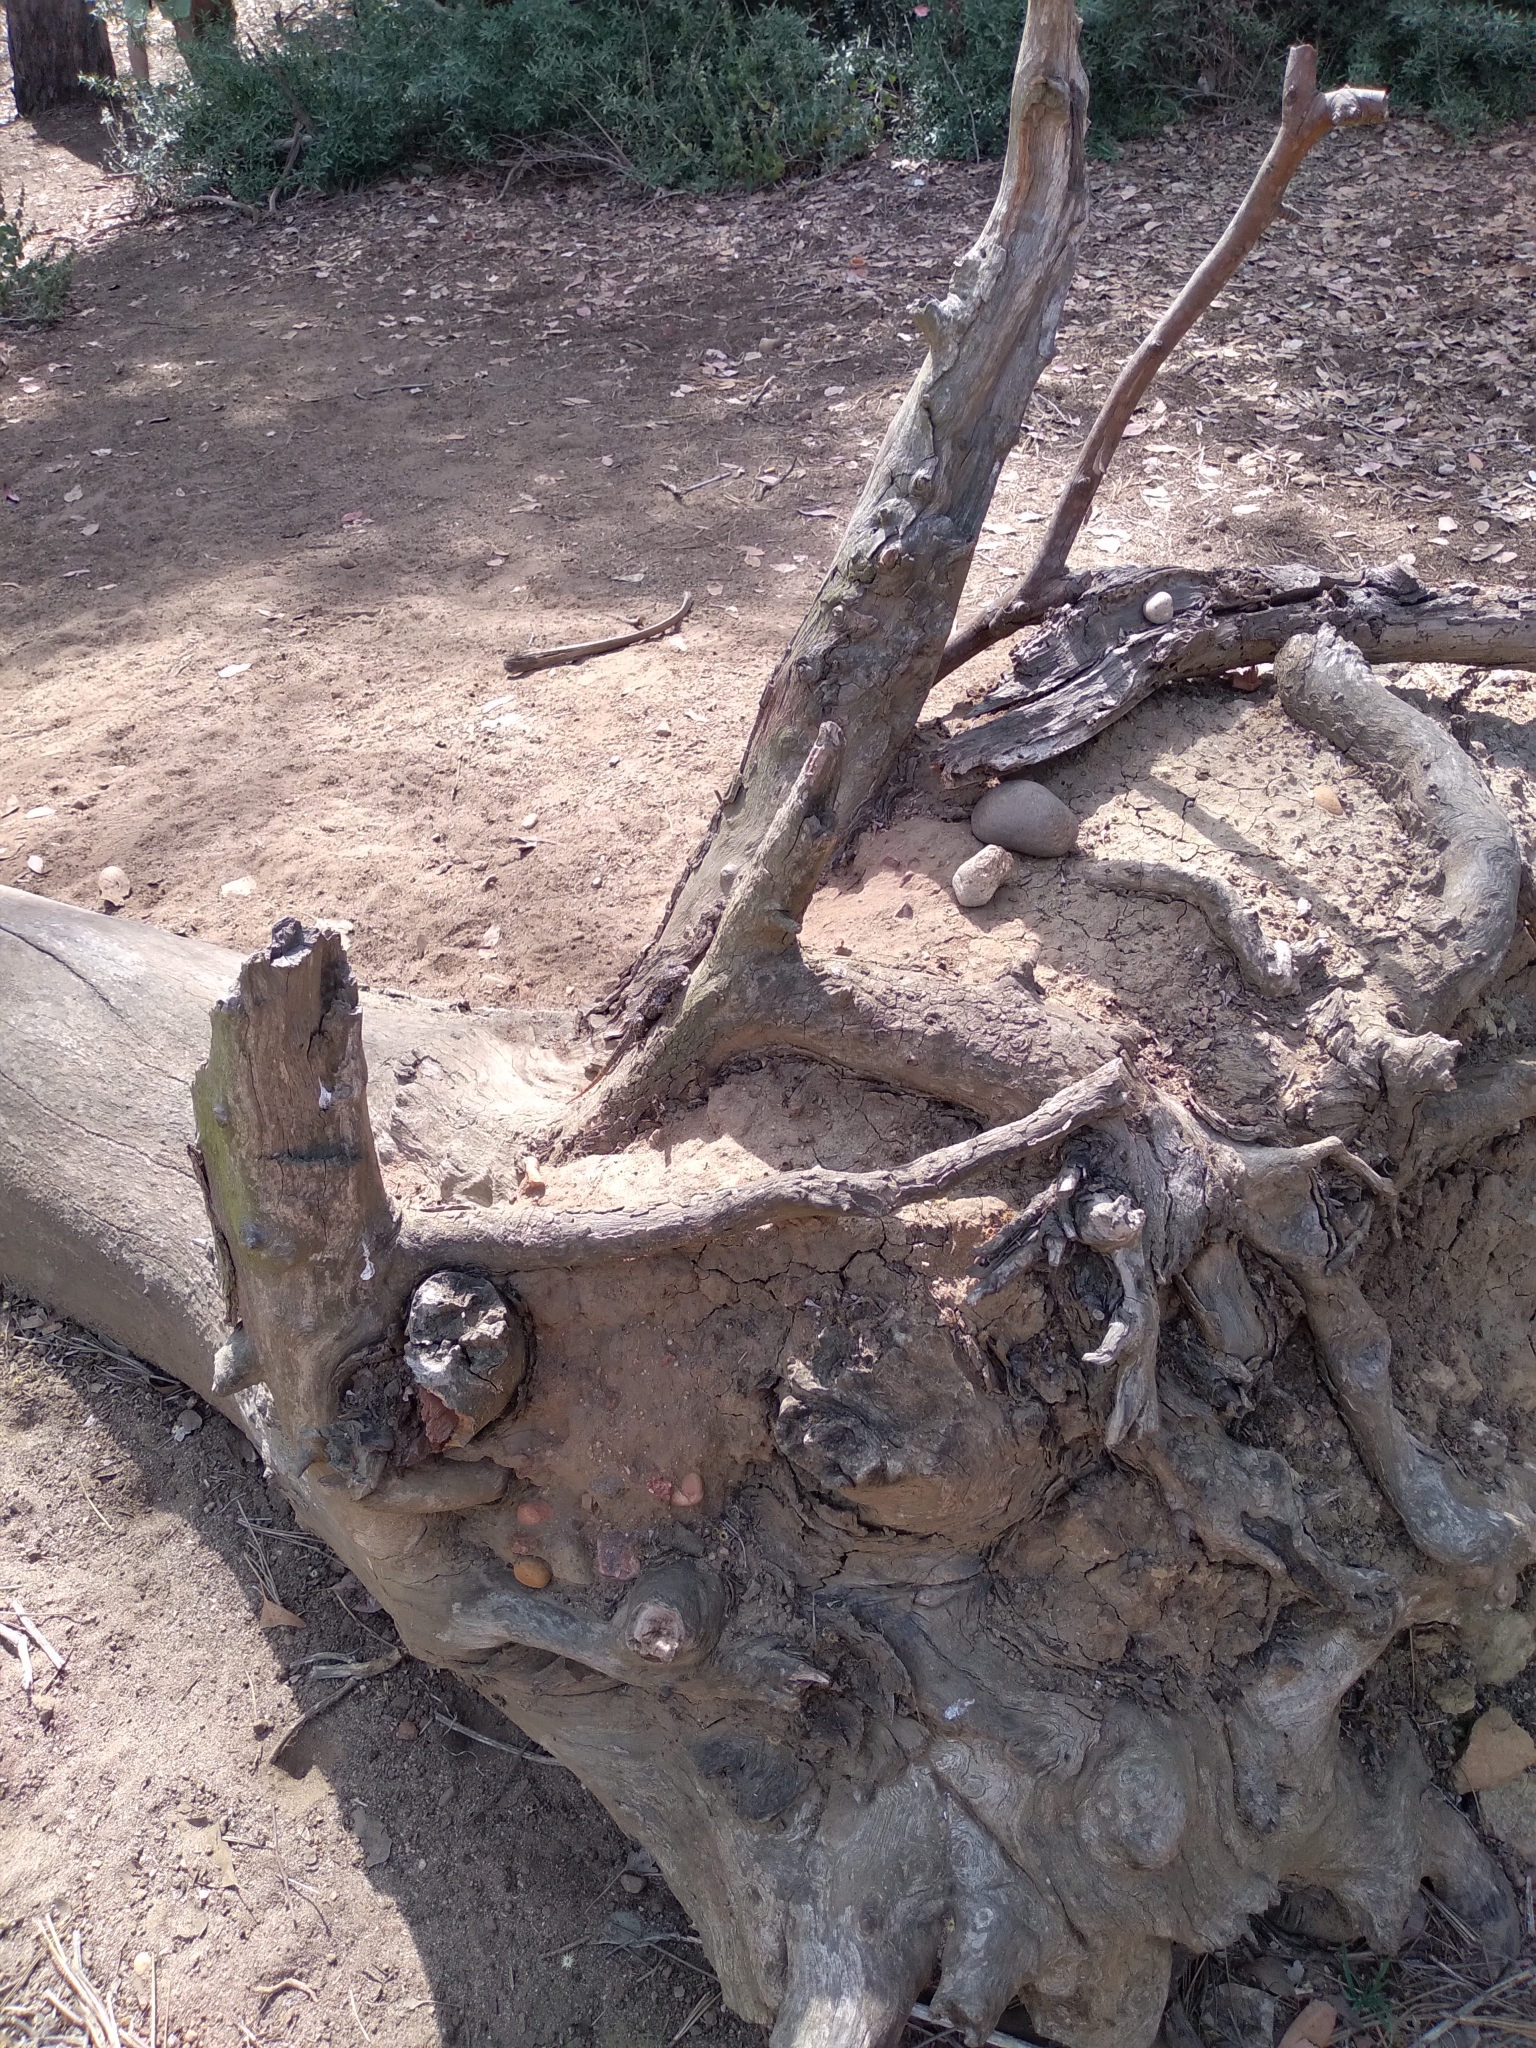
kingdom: Animalia
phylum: Chordata
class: Squamata
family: Phrynosomatidae
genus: Sceloporus
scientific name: Sceloporus occidentalis
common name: Western fence lizard
